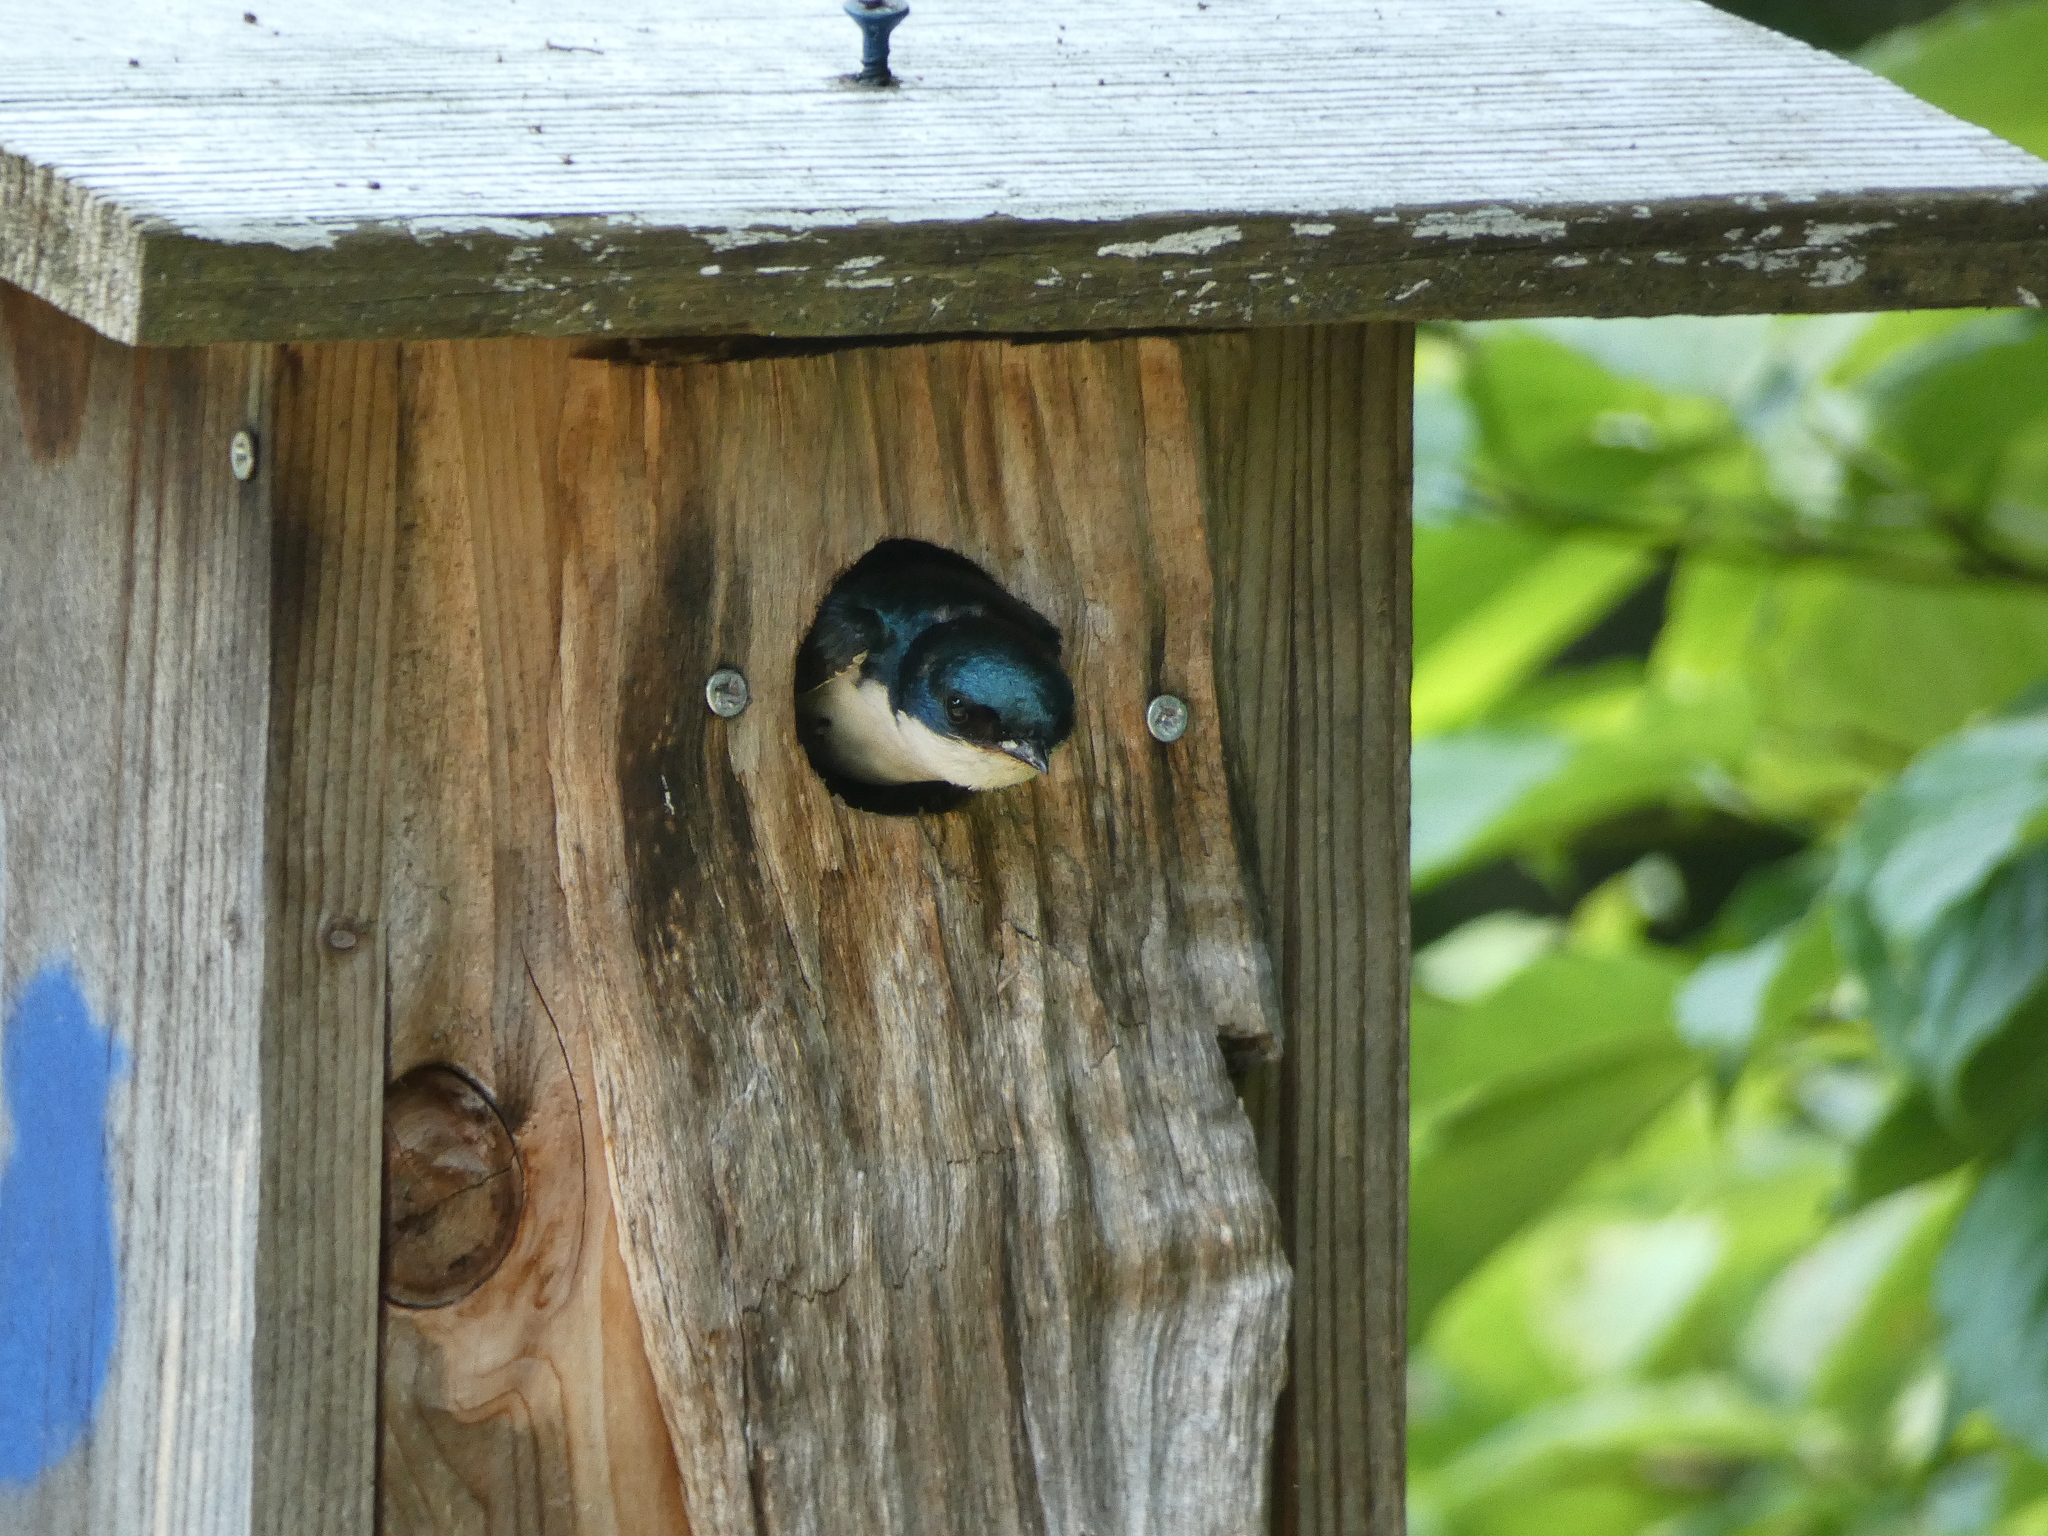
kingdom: Animalia
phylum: Chordata
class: Aves
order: Passeriformes
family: Hirundinidae
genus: Tachycineta
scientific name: Tachycineta bicolor
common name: Tree swallow
